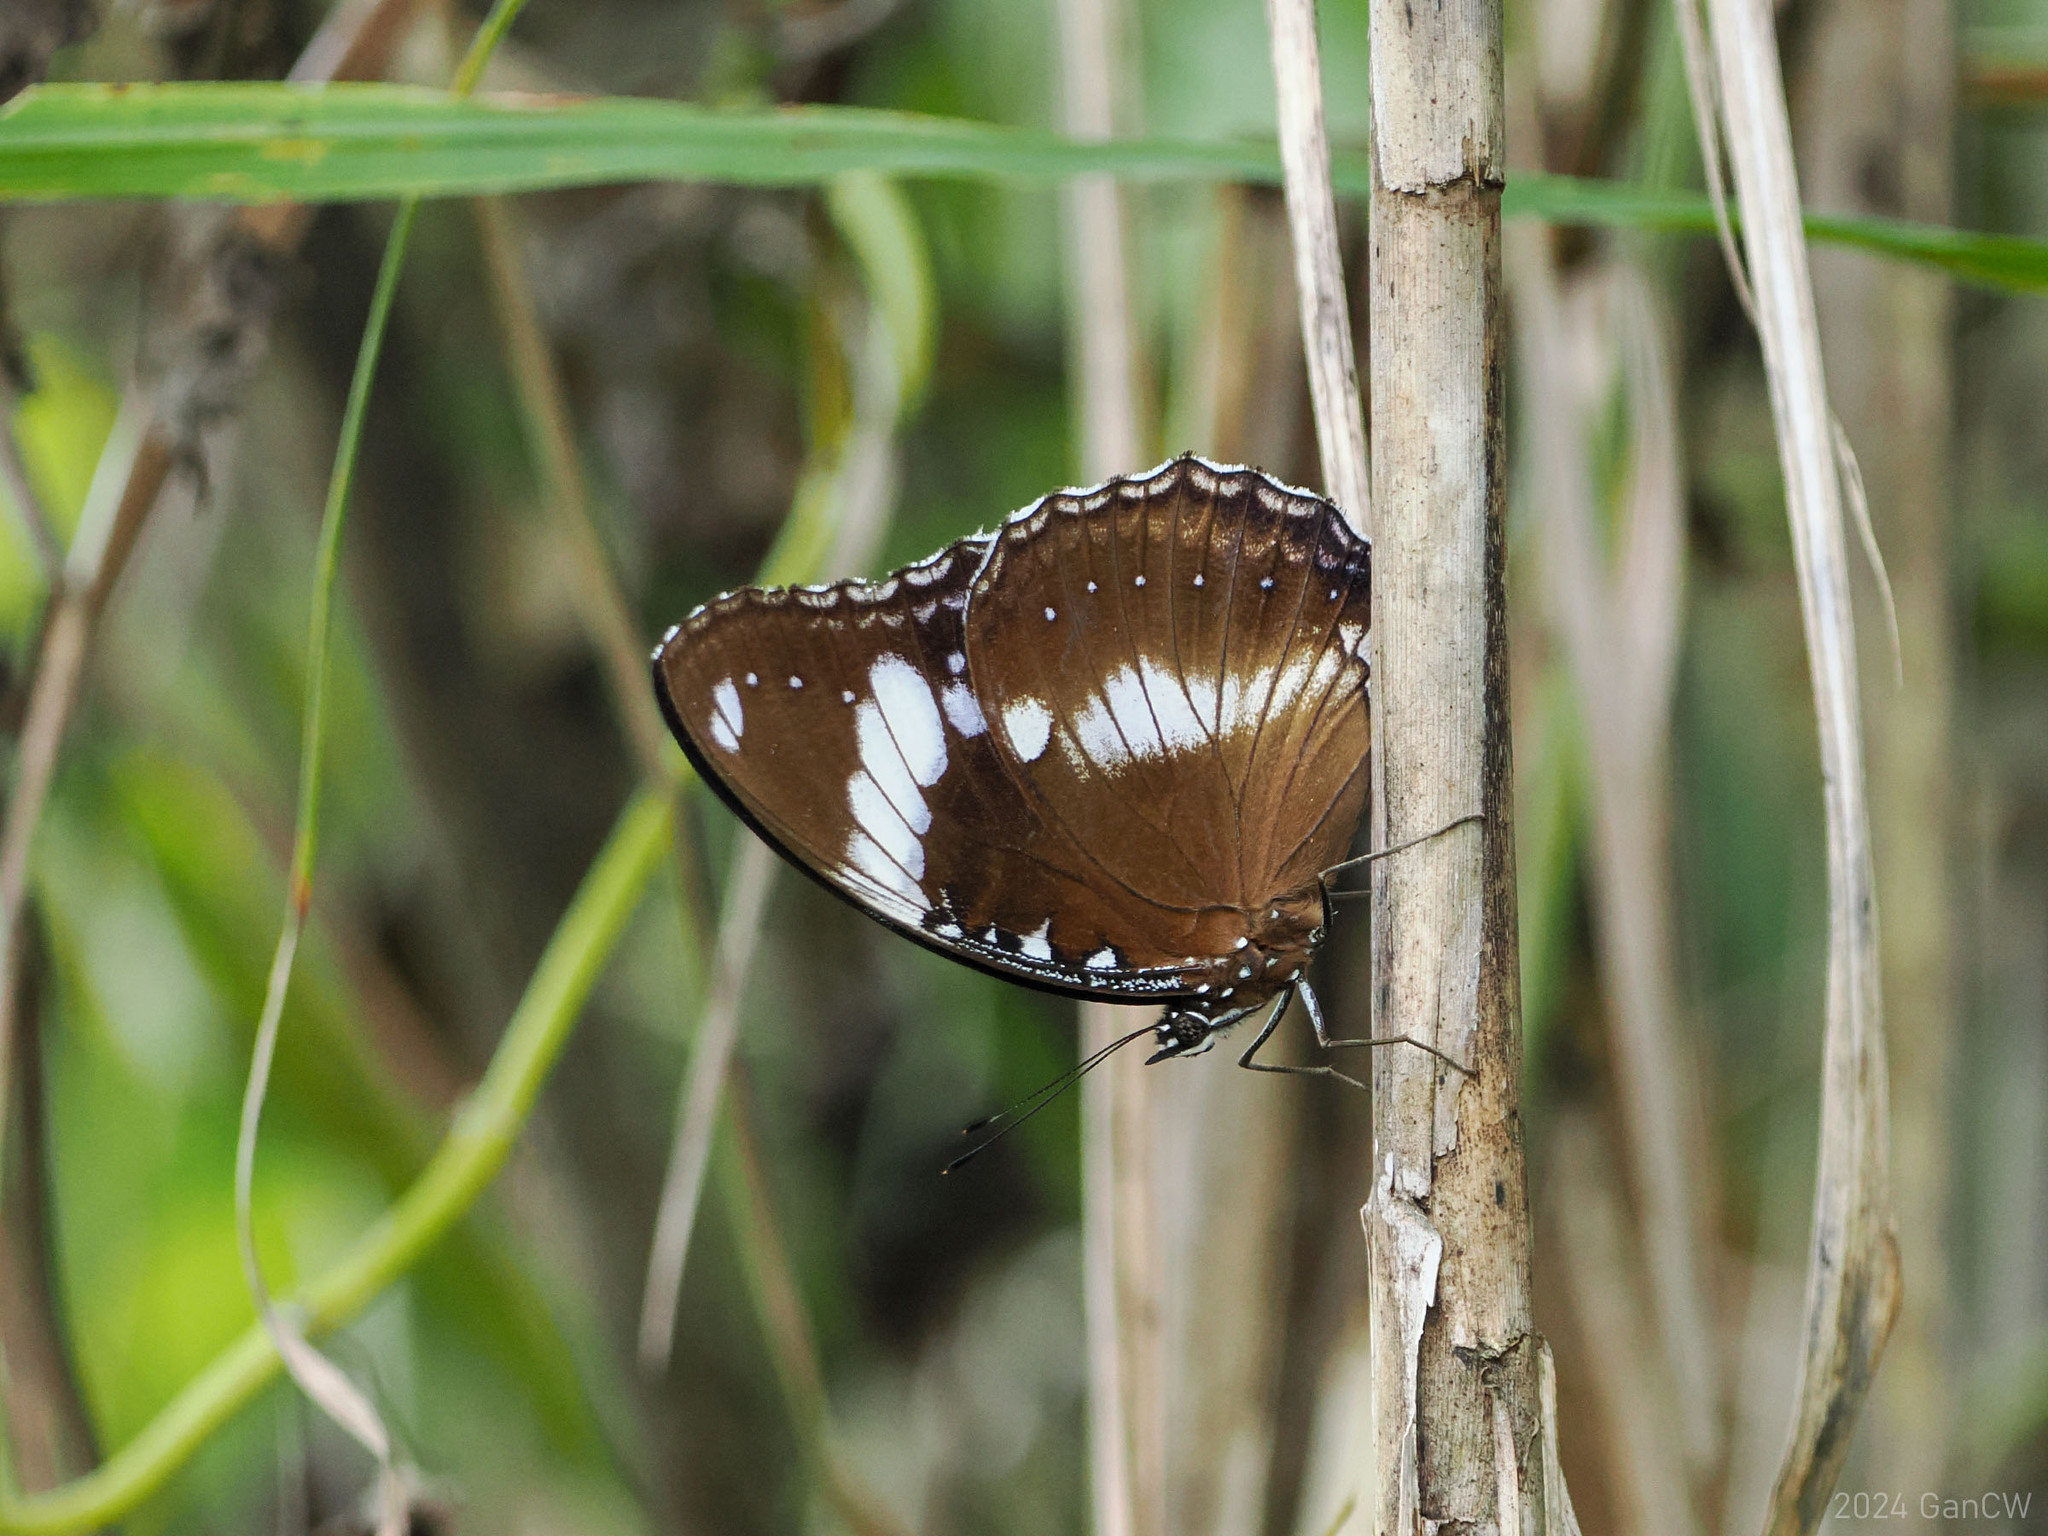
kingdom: Animalia
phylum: Arthropoda
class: Insecta
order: Lepidoptera
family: Nymphalidae
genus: Hypolimnas
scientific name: Hypolimnas bolina
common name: Great eggfly
